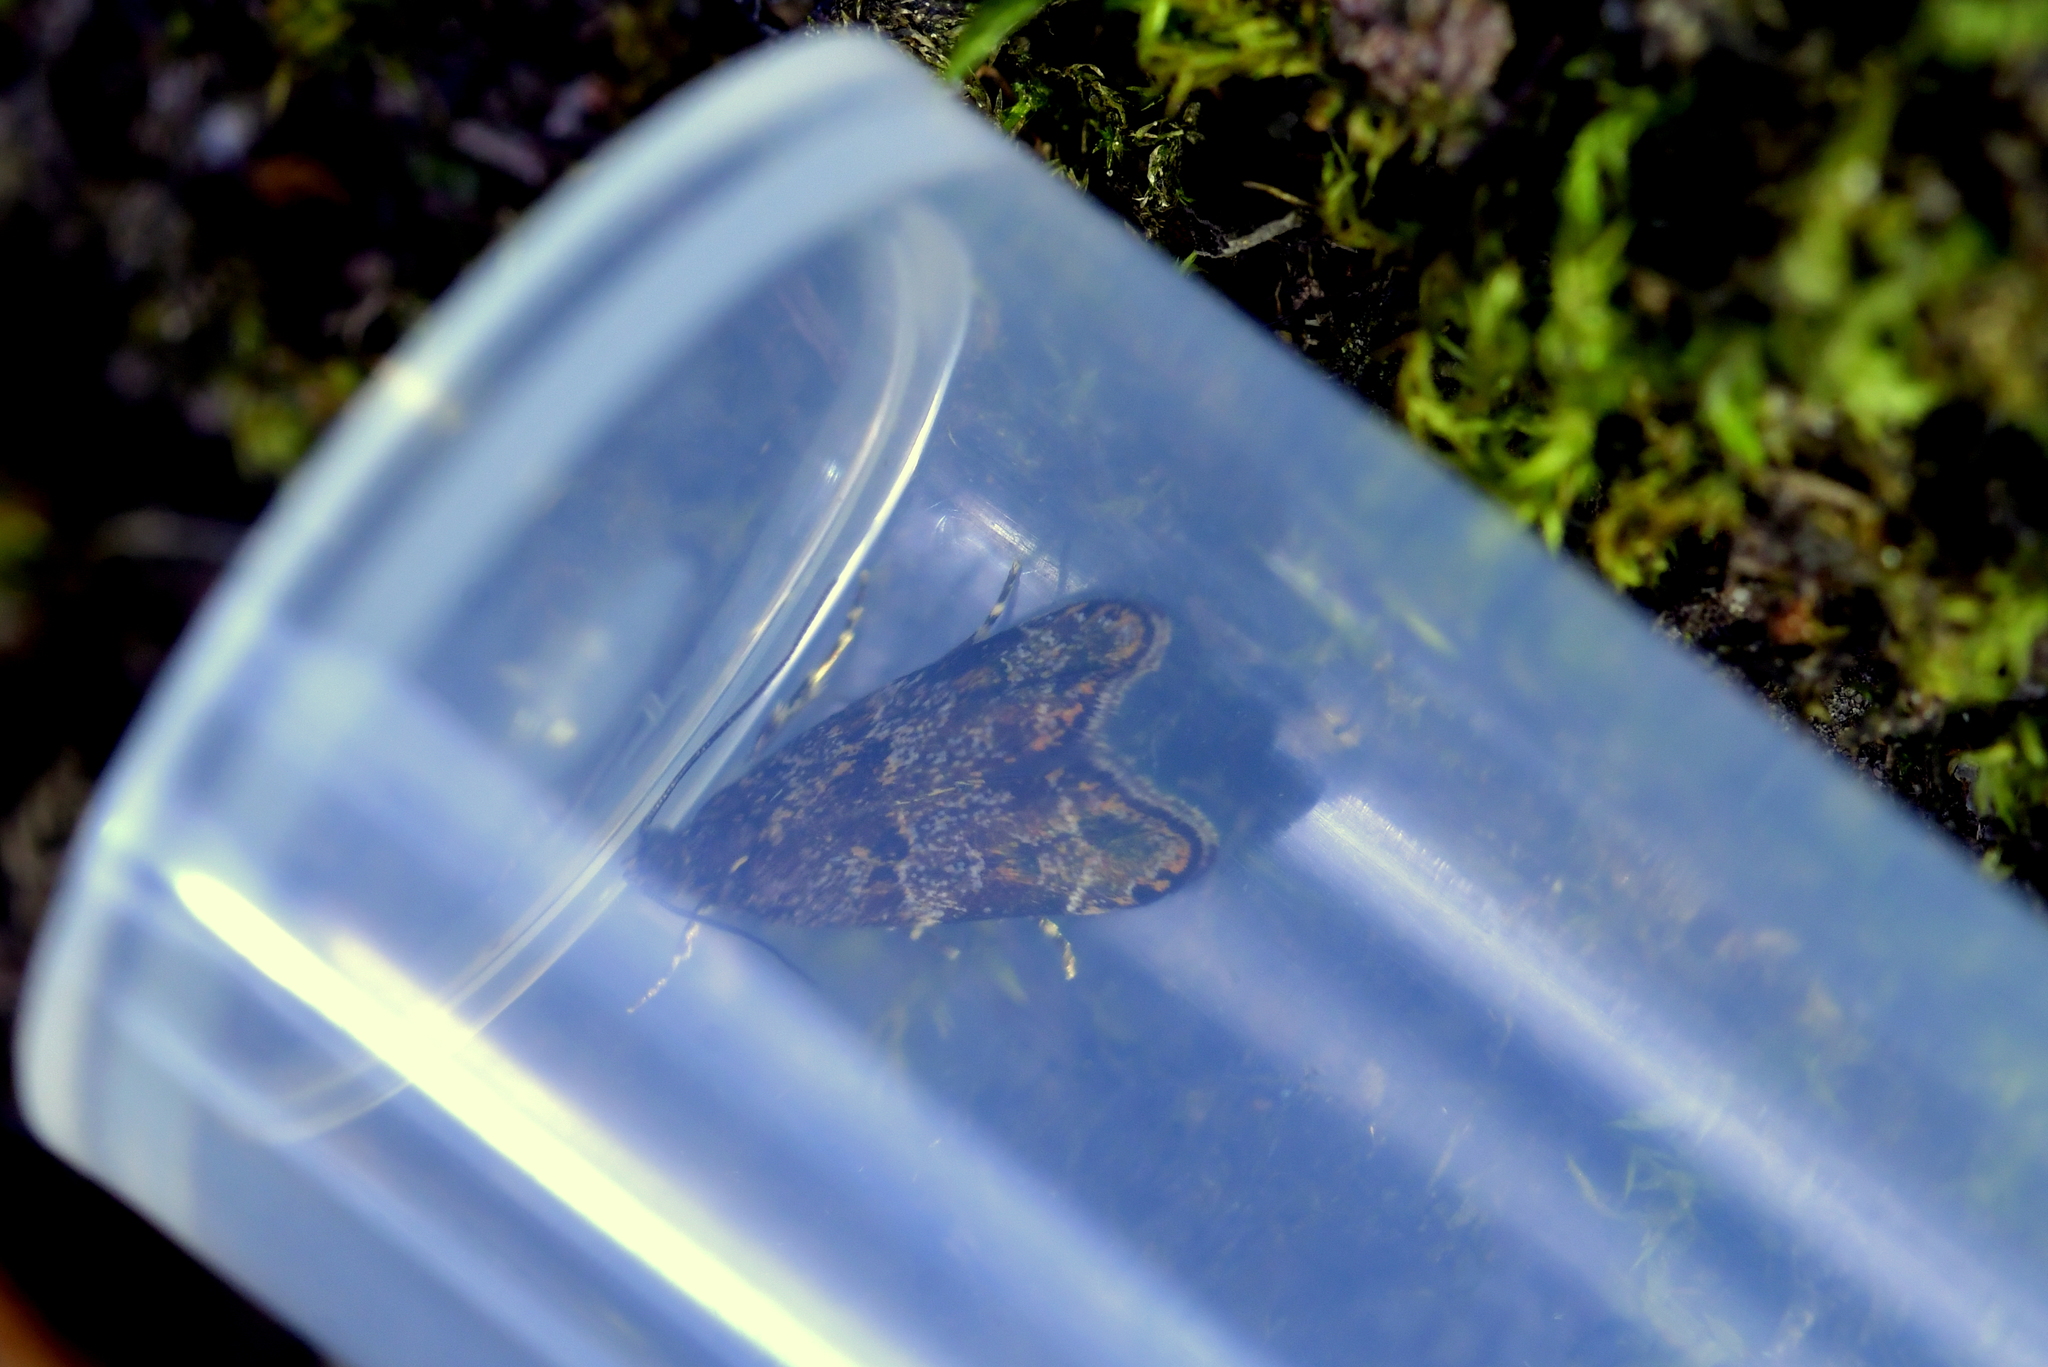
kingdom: Animalia
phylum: Arthropoda
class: Insecta
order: Lepidoptera
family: Oecophoridae
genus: Gymnobathra
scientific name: Gymnobathra omphalota
